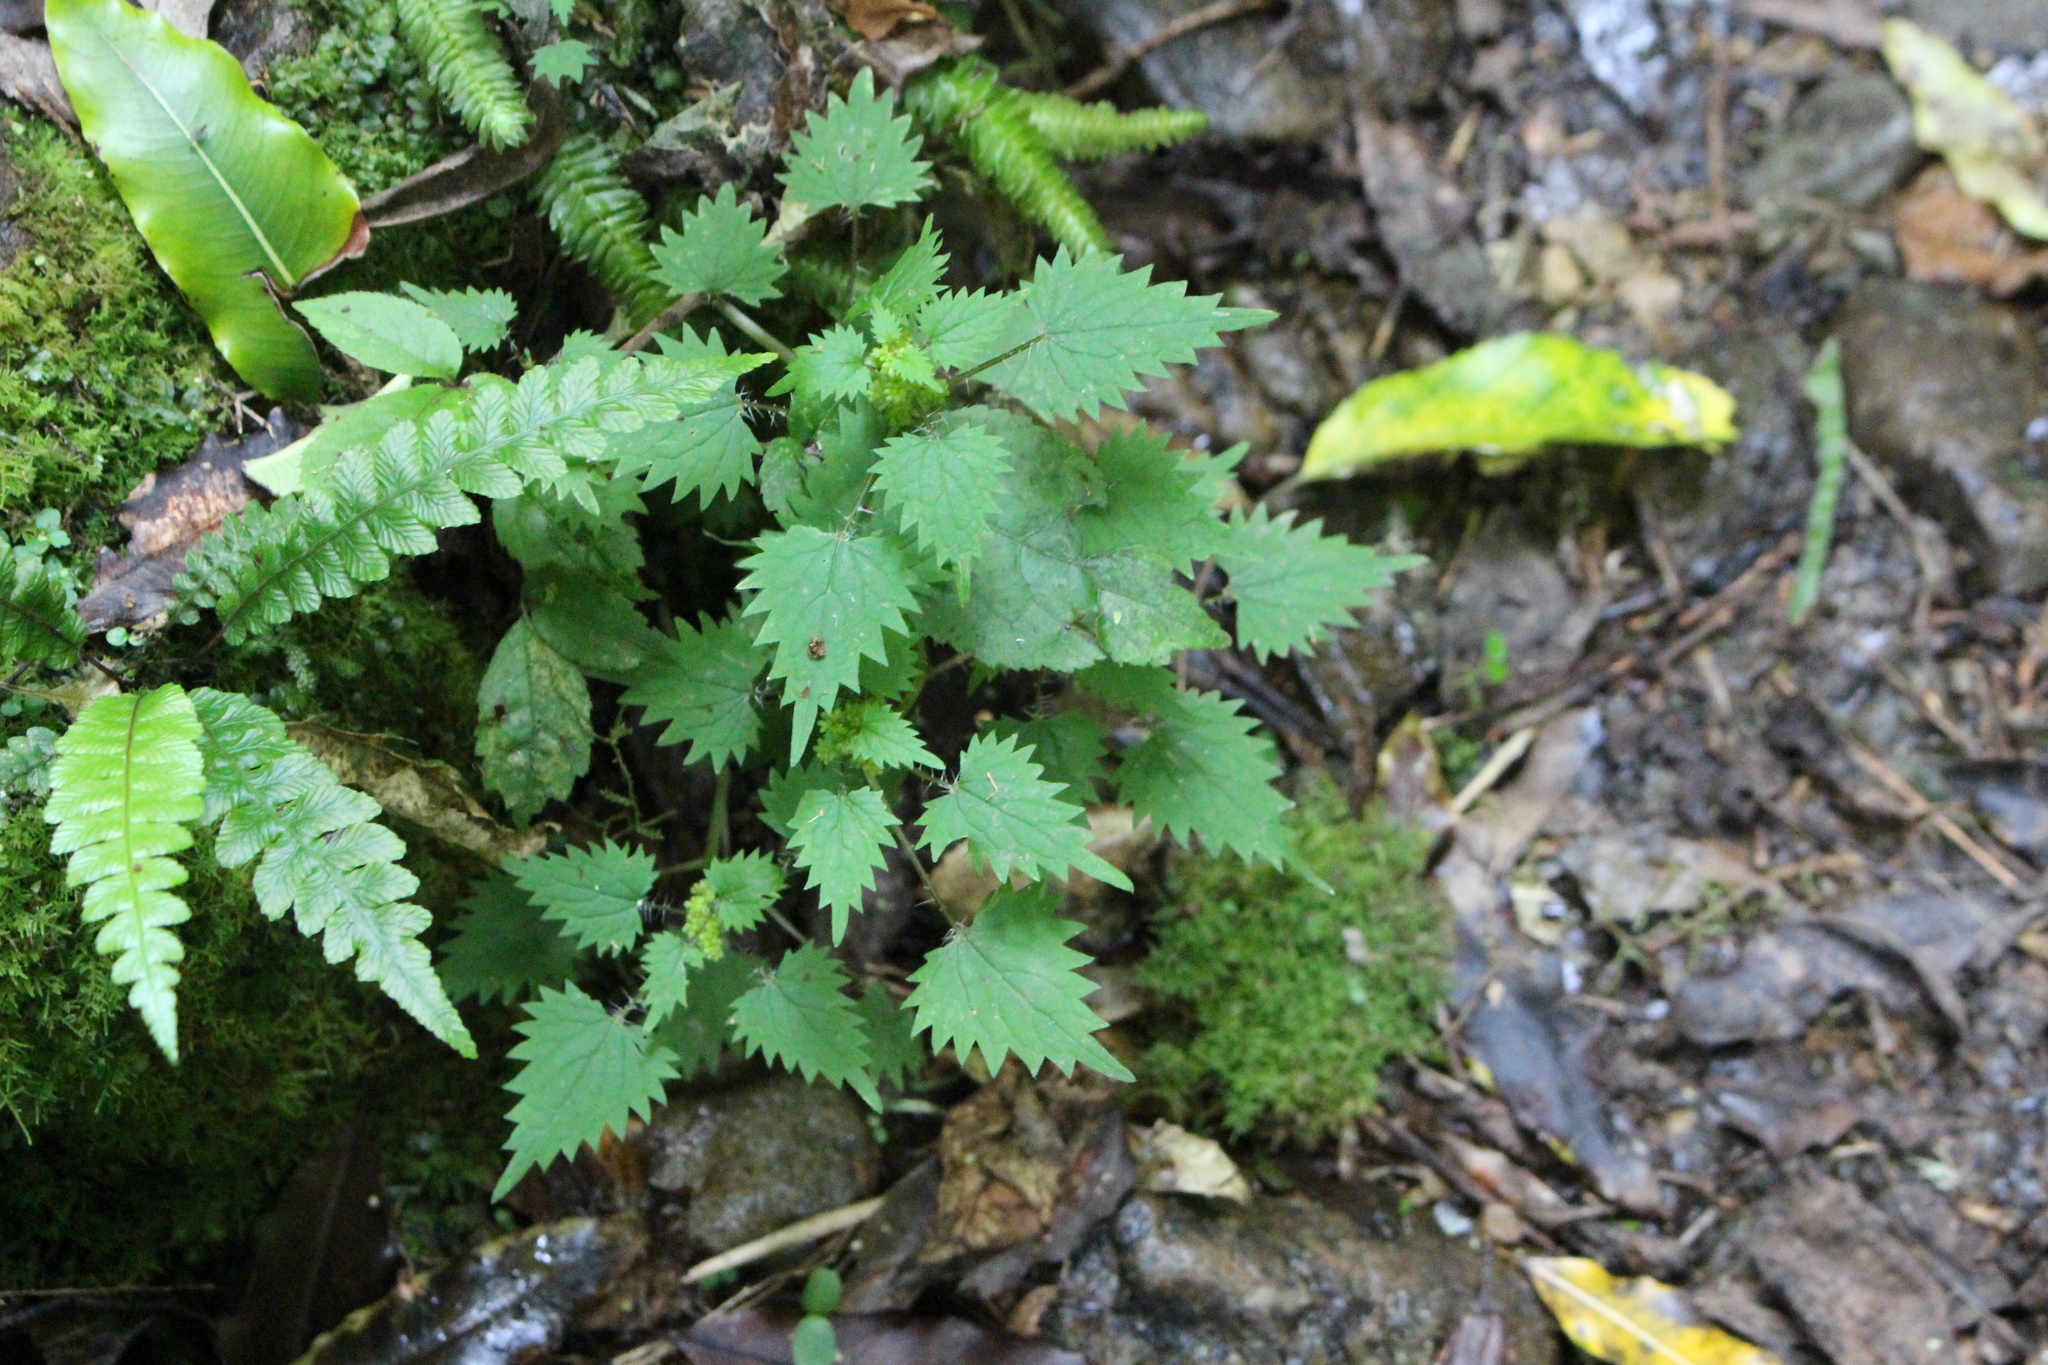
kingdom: Plantae
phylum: Tracheophyta
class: Magnoliopsida
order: Rosales
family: Urticaceae
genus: Urtica
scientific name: Urtica sykesii
